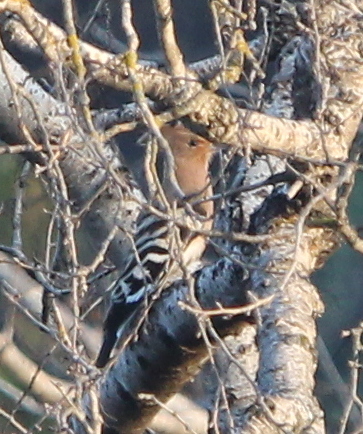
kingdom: Animalia
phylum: Chordata
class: Aves
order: Bucerotiformes
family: Upupidae
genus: Upupa
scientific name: Upupa epops
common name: Eurasian hoopoe
